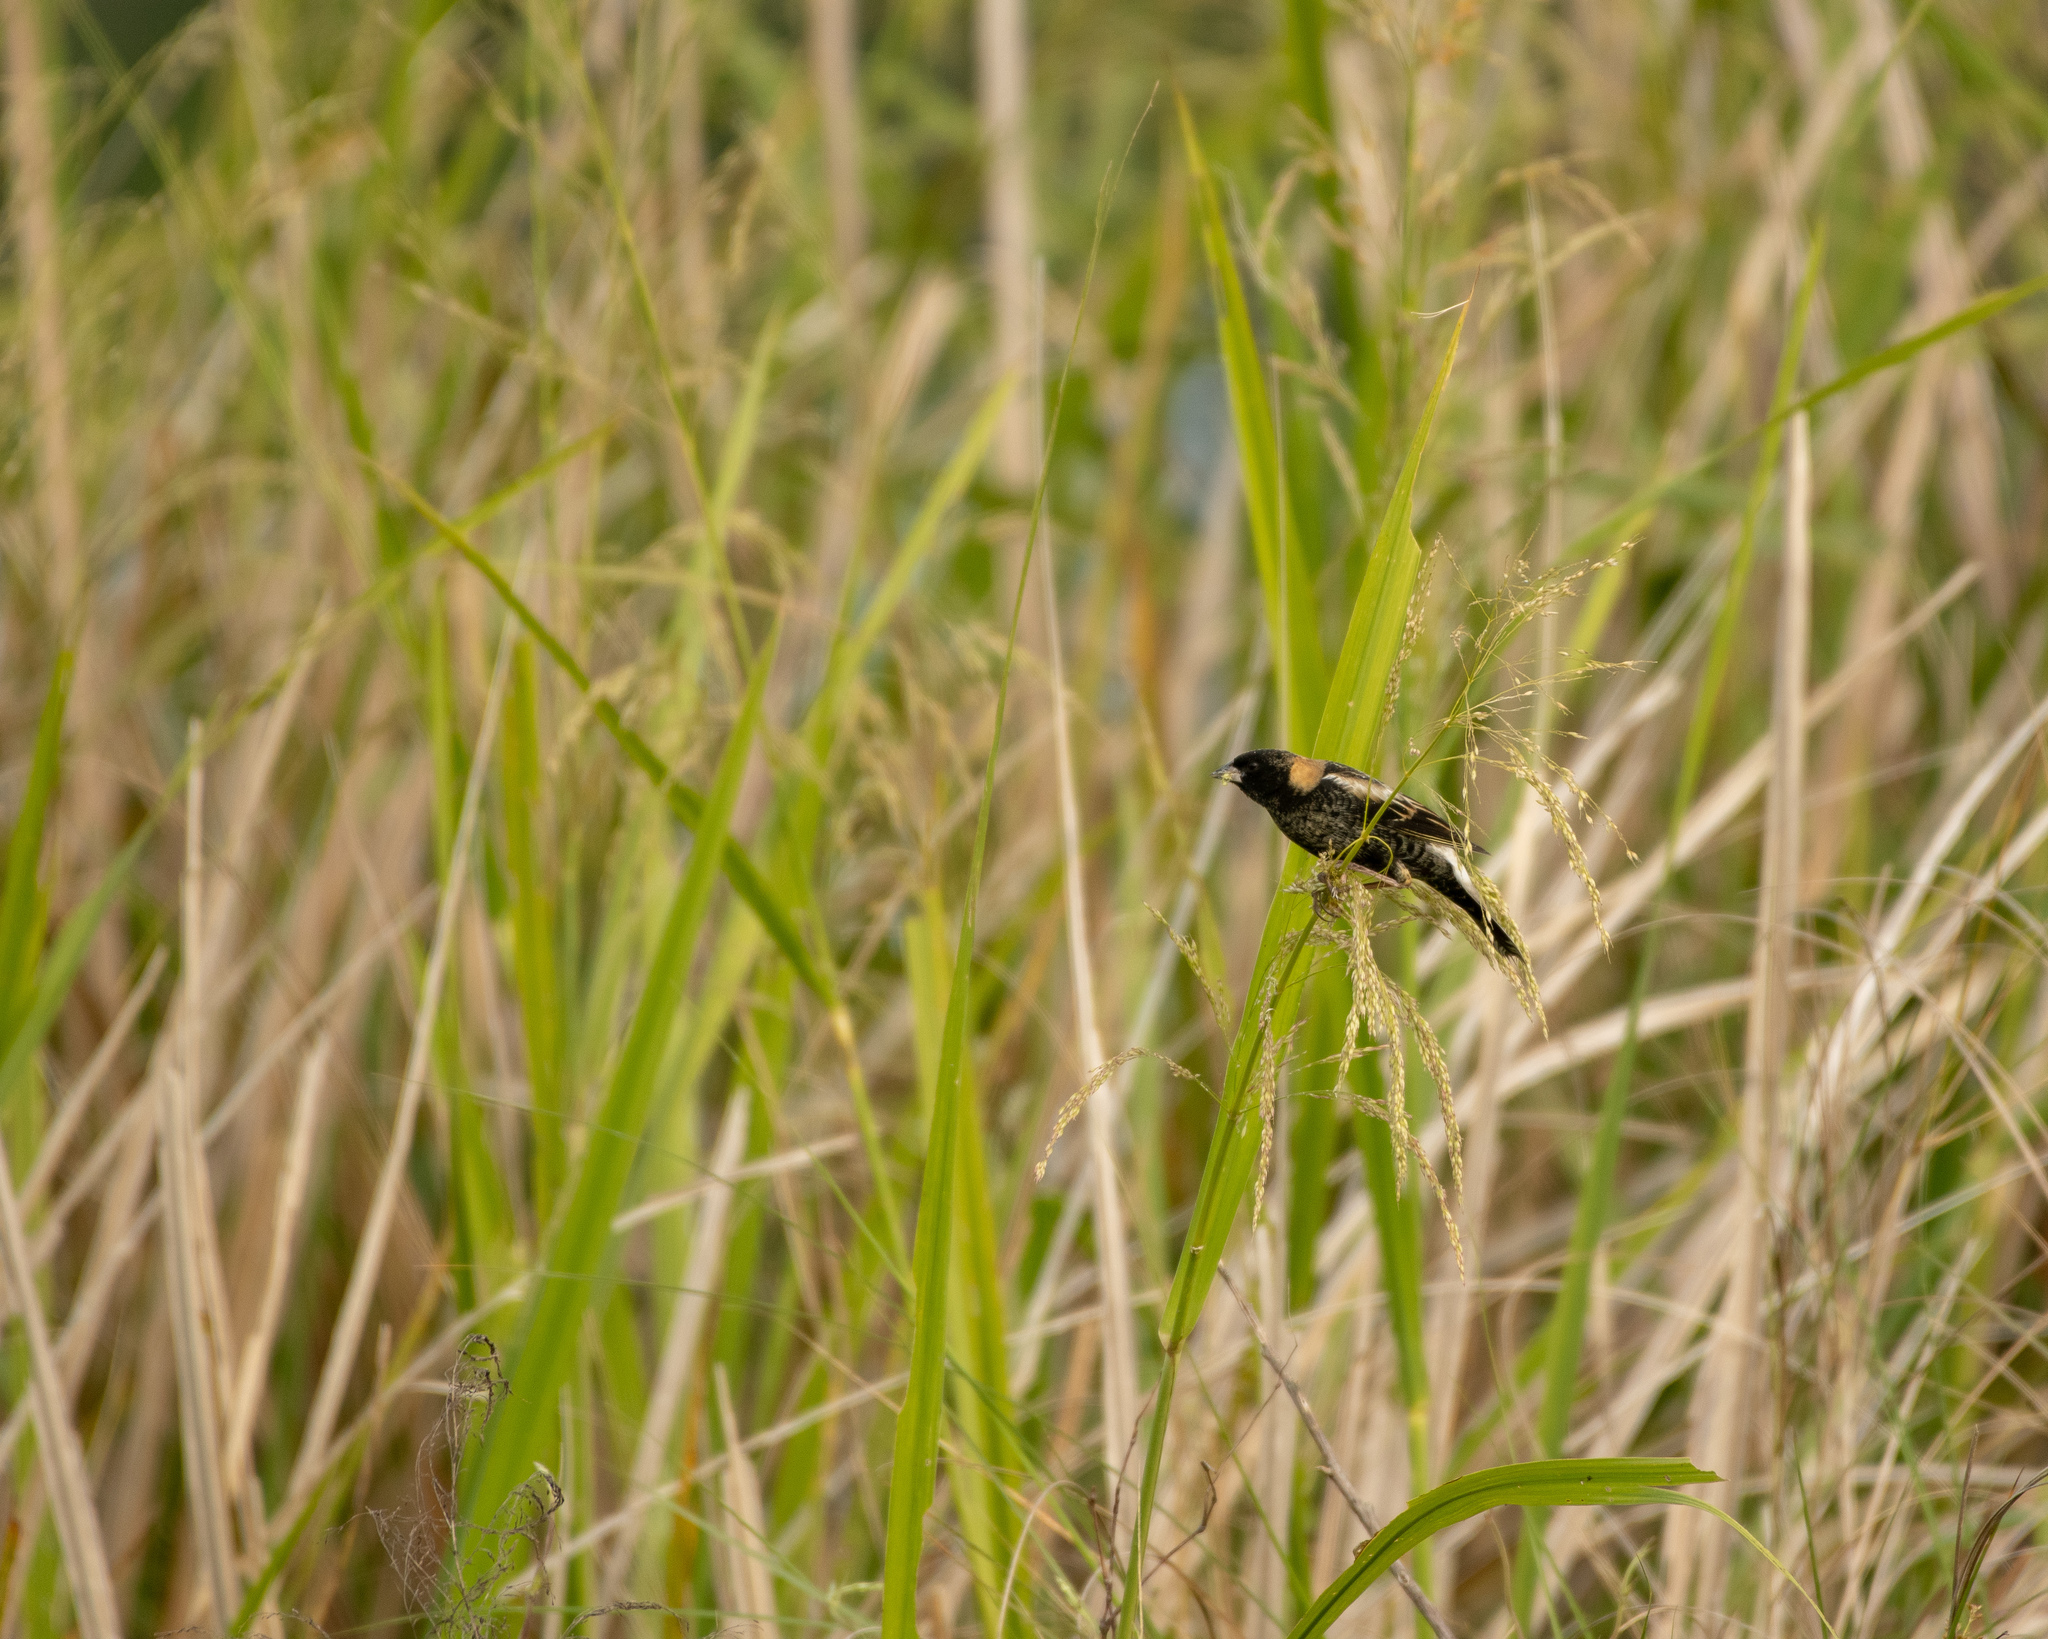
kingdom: Animalia
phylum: Chordata
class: Aves
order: Passeriformes
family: Icteridae
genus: Dolichonyx
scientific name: Dolichonyx oryzivorus
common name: Bobolink
